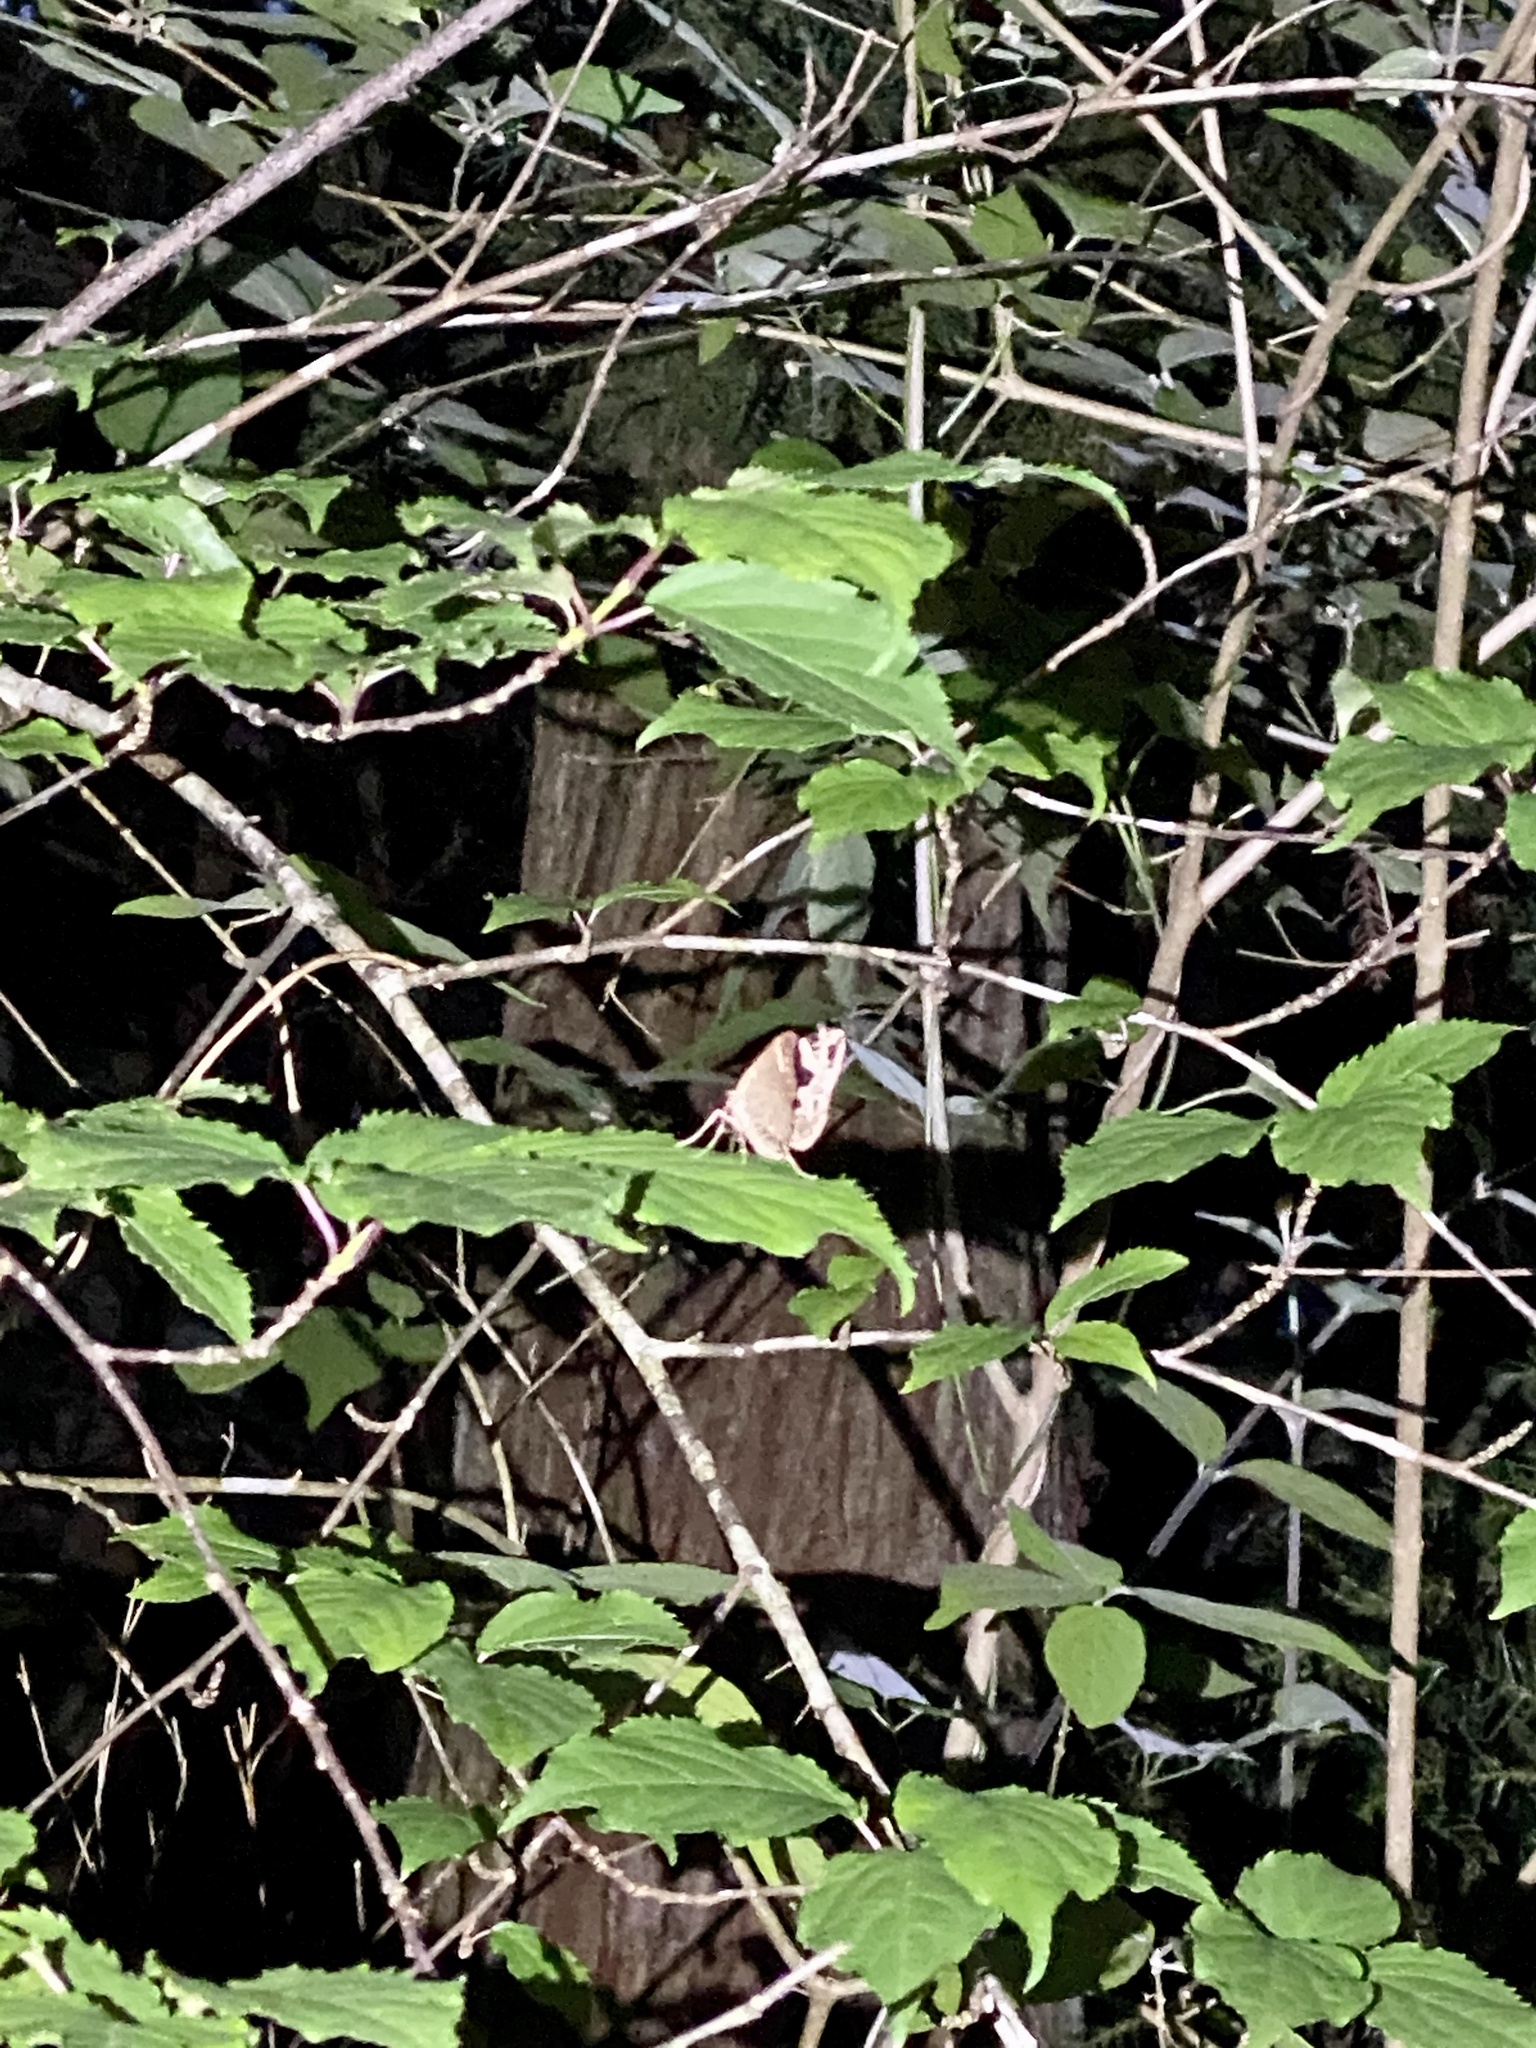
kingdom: Animalia
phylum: Arthropoda
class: Insecta
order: Lepidoptera
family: Geometridae
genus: Sibatania
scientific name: Sibatania mactata
